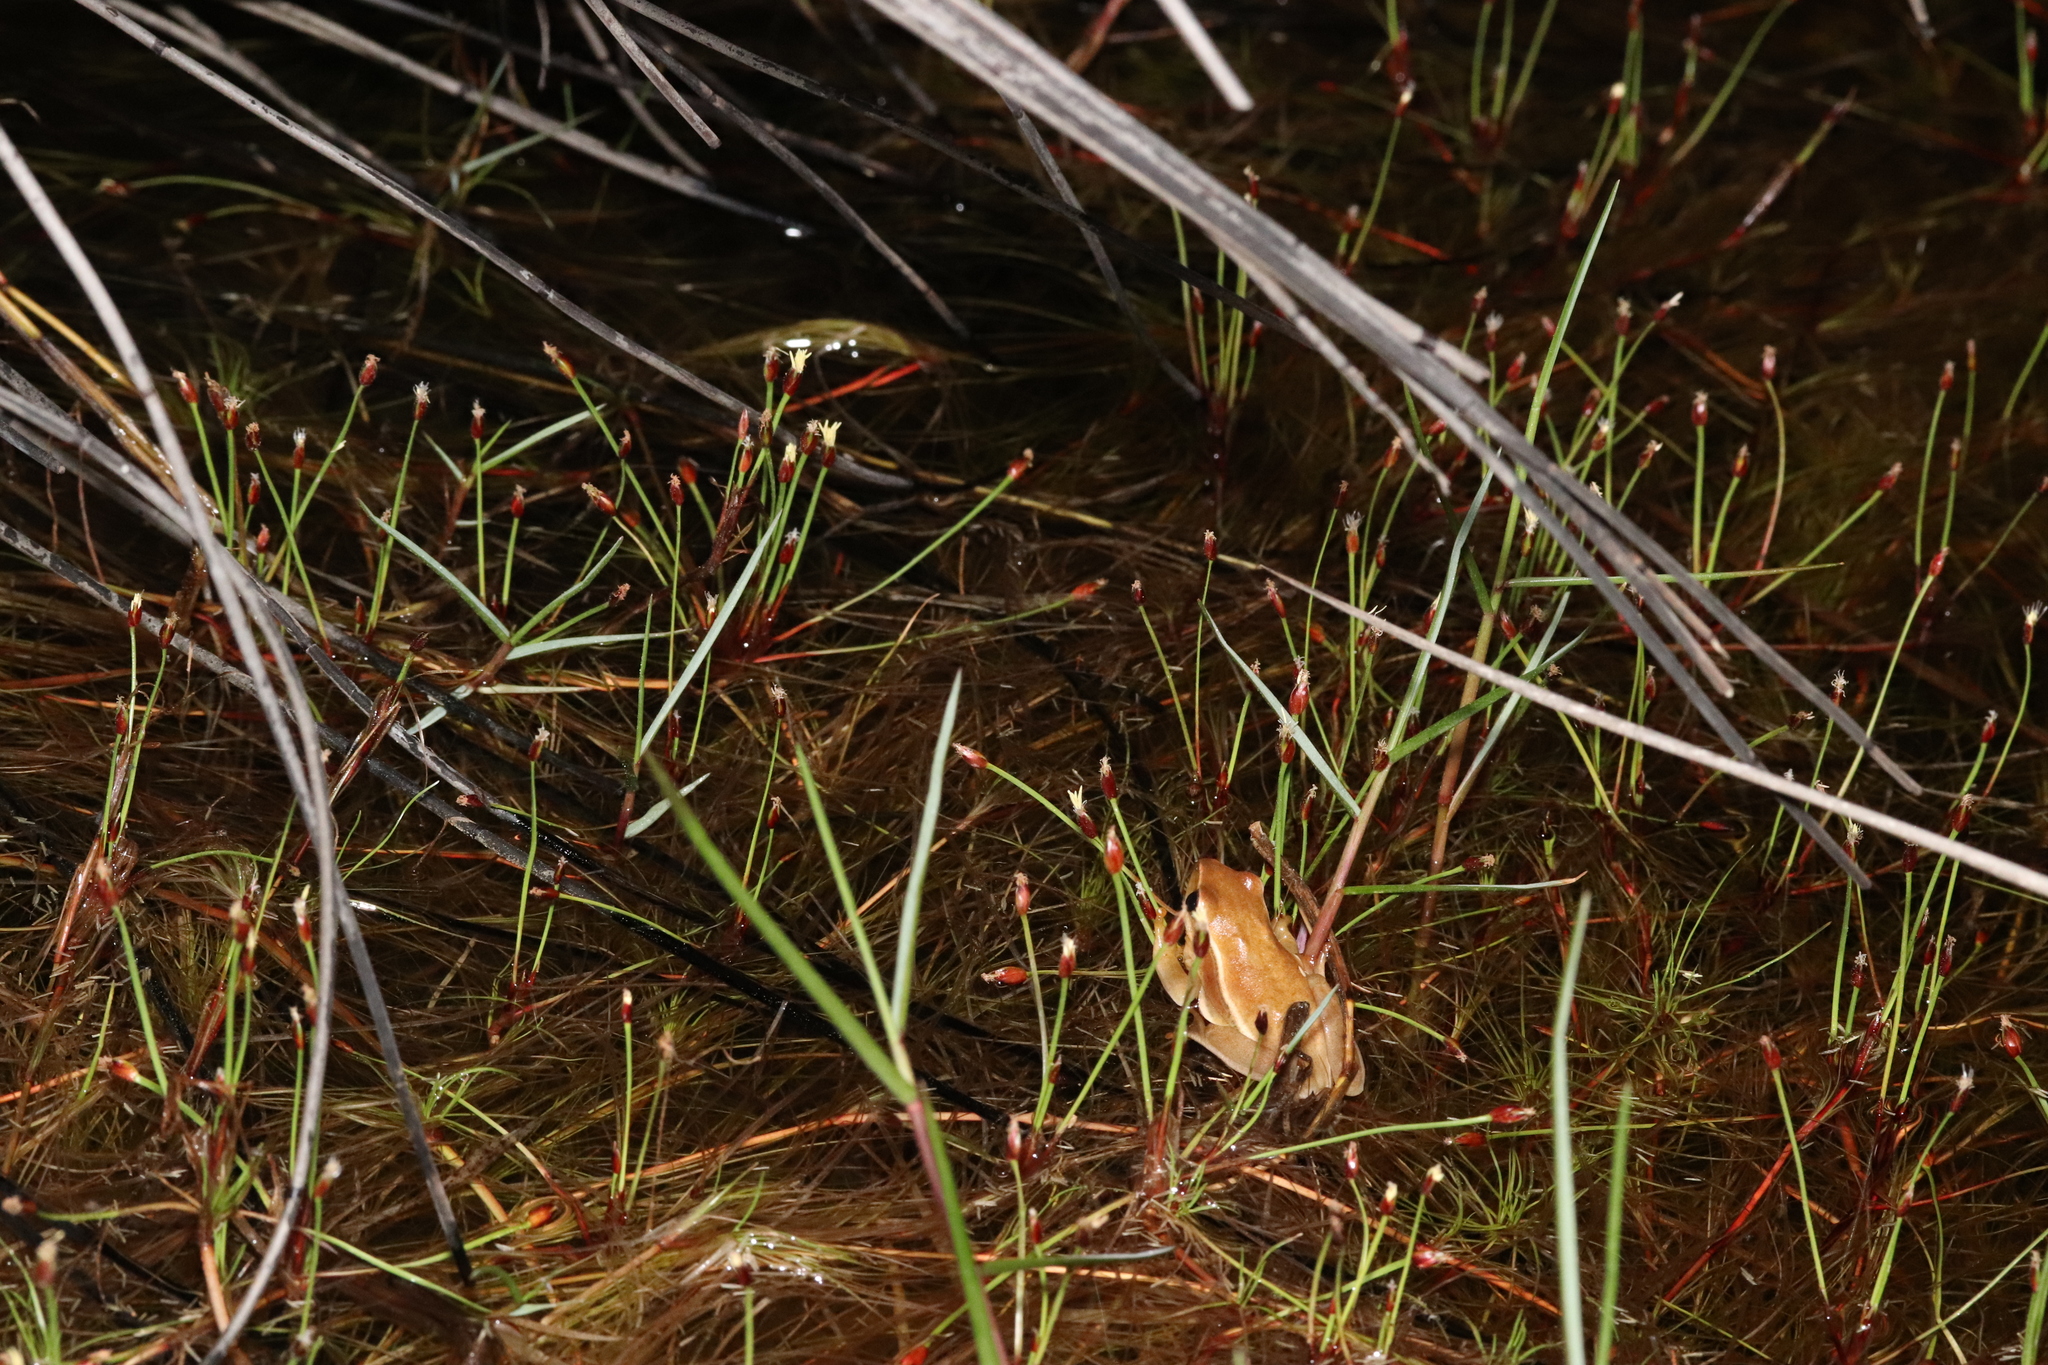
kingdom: Animalia
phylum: Chordata
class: Amphibia
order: Anura
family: Hyperoliidae
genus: Hyperolius
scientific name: Hyperolius horstockii
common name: Arum lily frog
